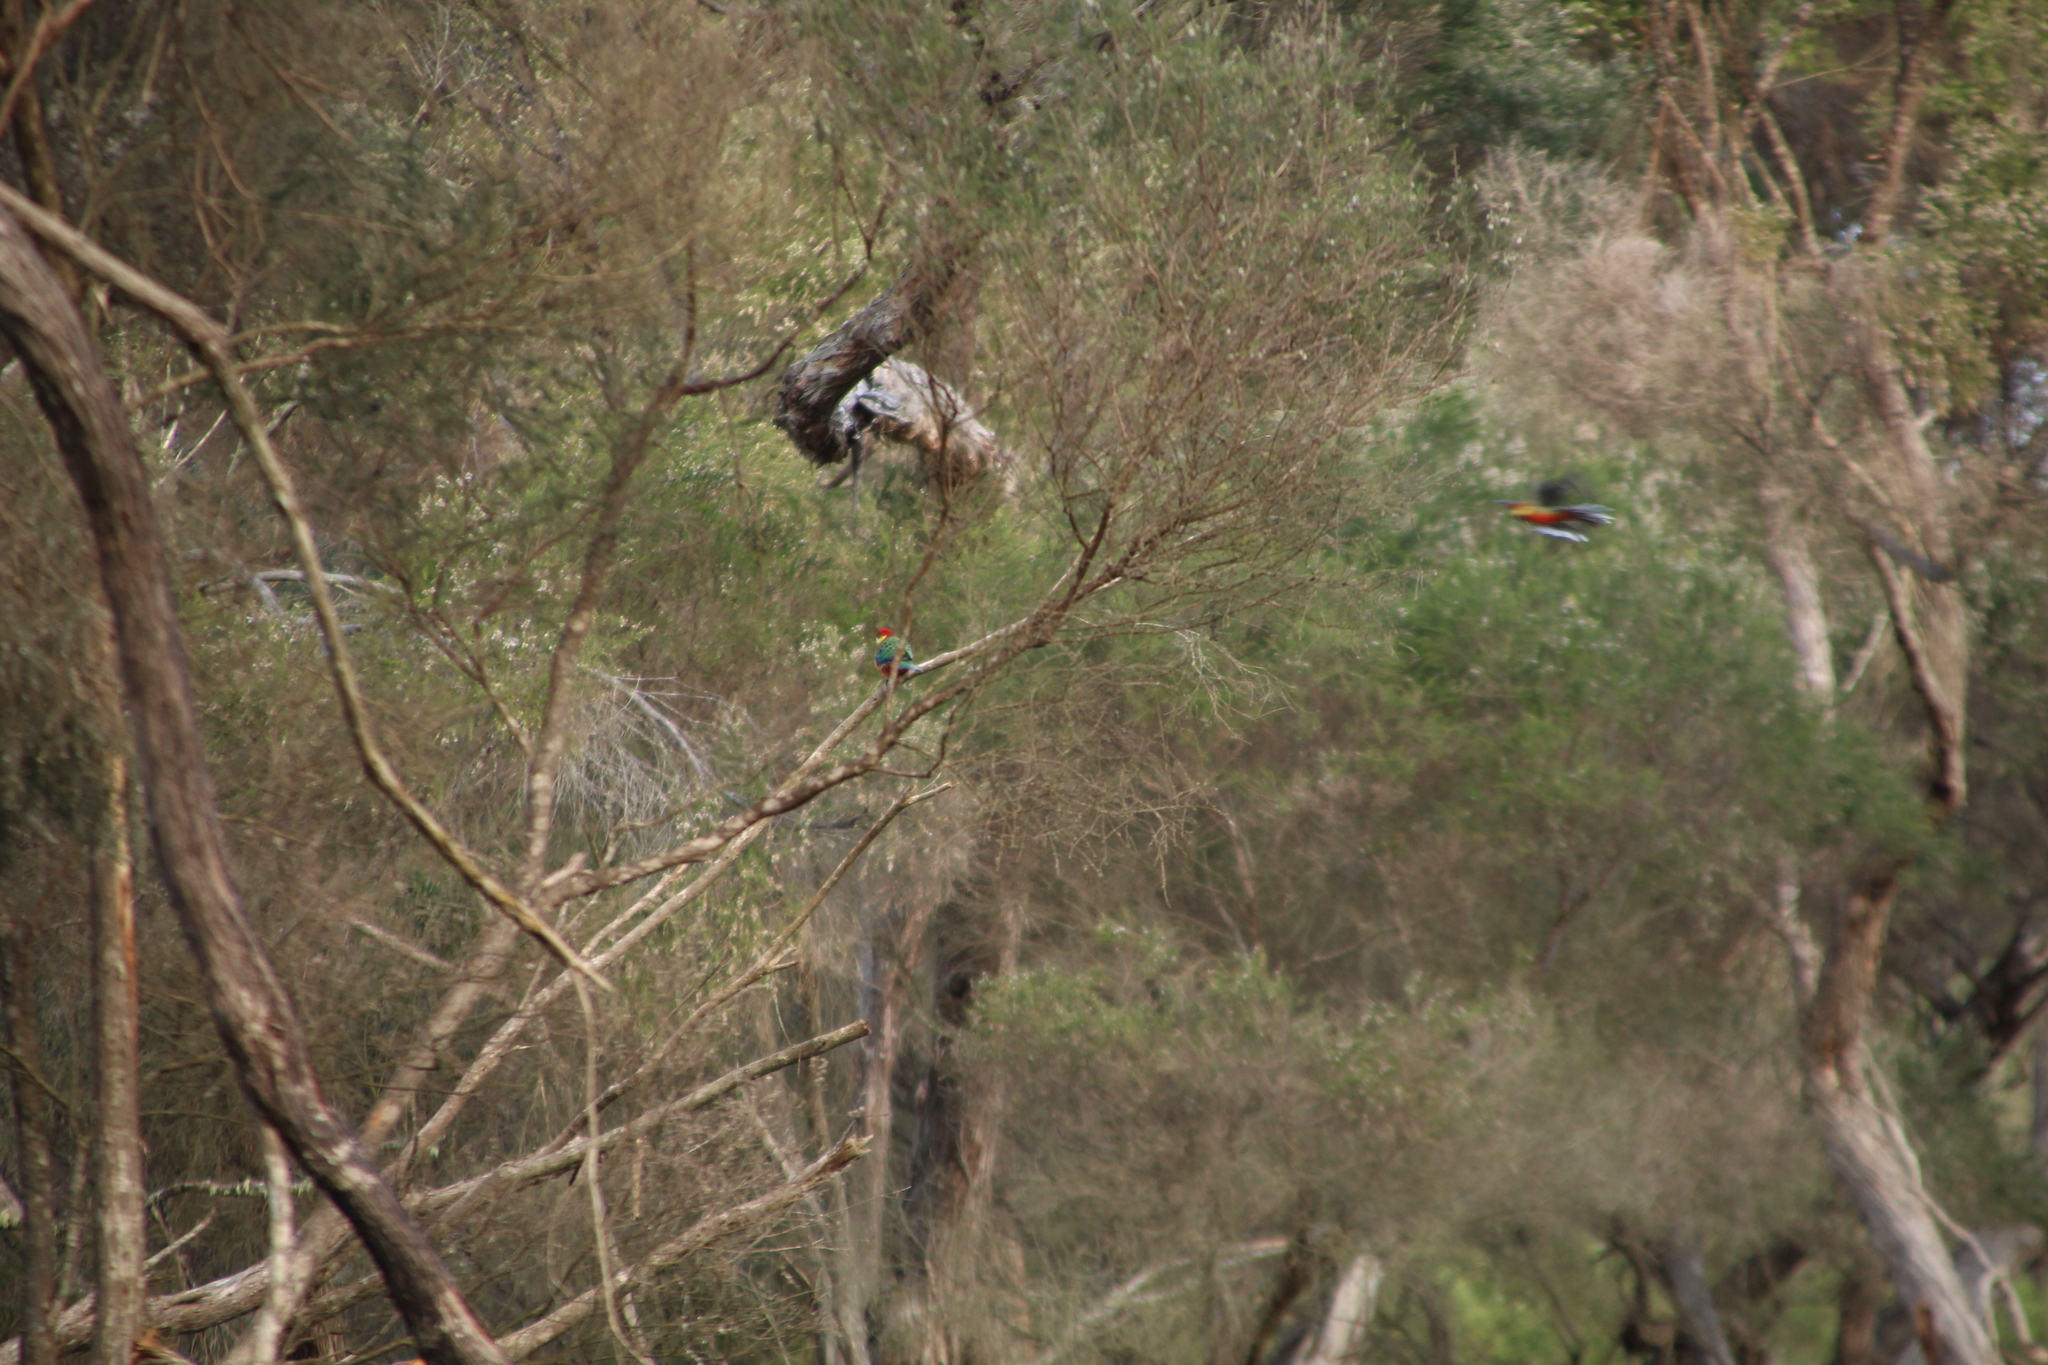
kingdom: Animalia
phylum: Chordata
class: Aves
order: Psittaciformes
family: Psittacidae
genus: Platycercus
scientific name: Platycercus icterotis
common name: Western rosella
